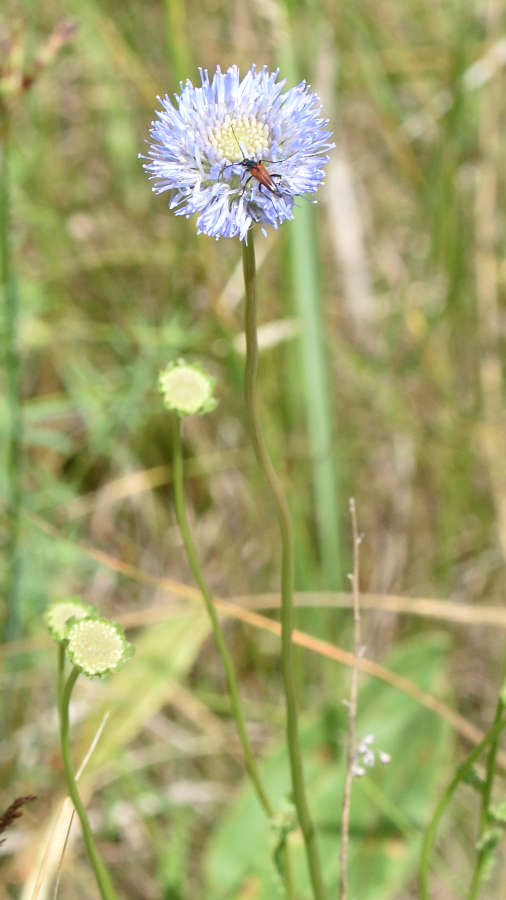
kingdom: Plantae
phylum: Tracheophyta
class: Magnoliopsida
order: Asterales
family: Campanulaceae
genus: Jasione
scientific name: Jasione montana
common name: Sheep's-bit
